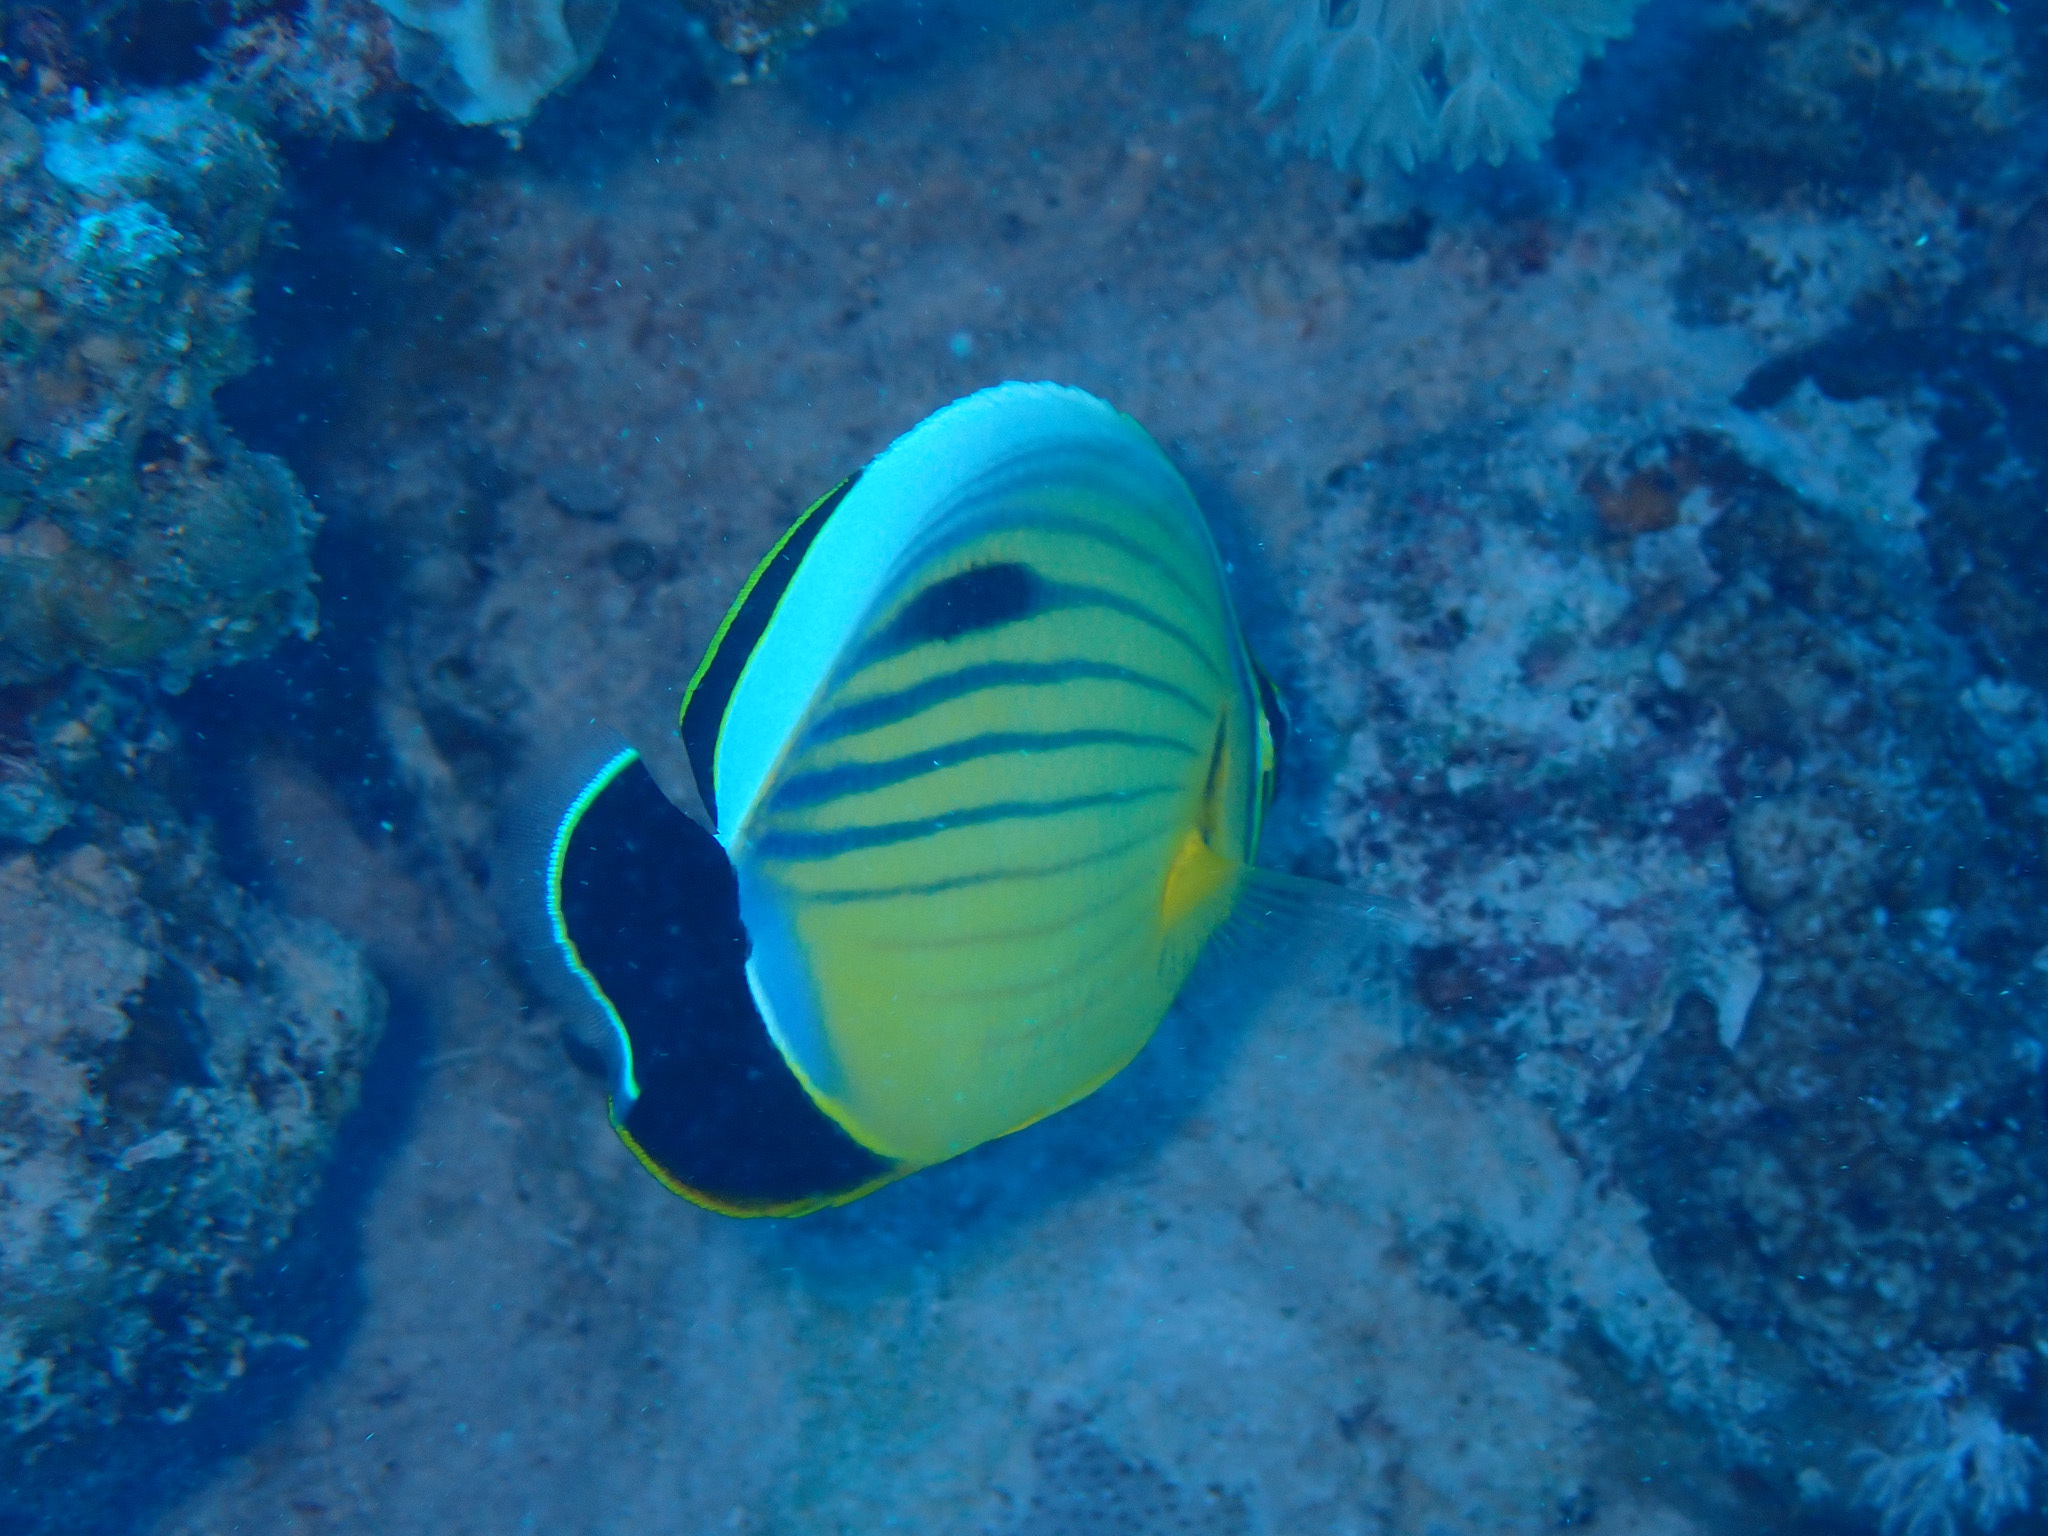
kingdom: Animalia
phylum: Chordata
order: Perciformes
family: Chaetodontidae
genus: Chaetodon
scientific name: Chaetodon austriacus
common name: Exquisite butterflyfish
